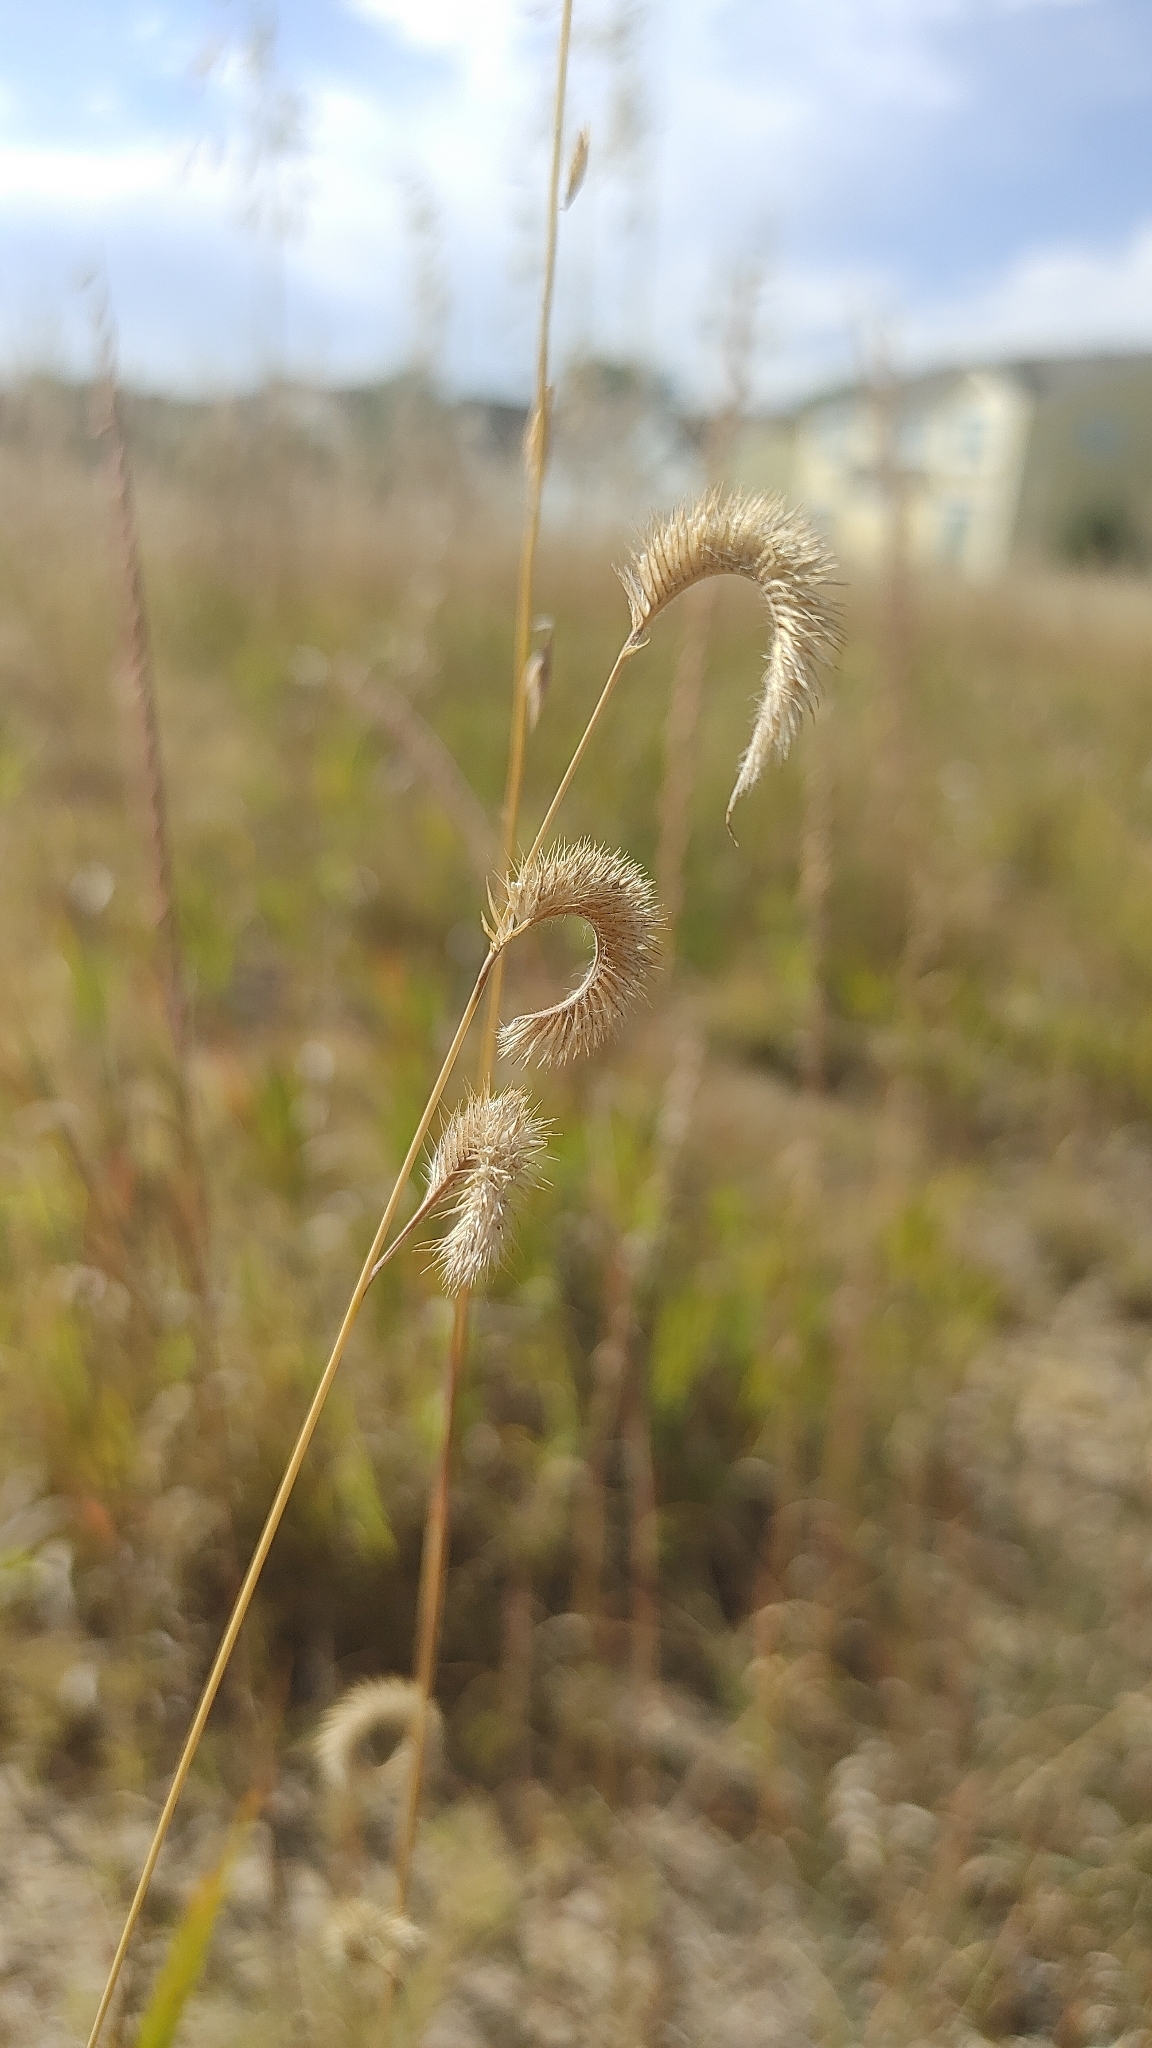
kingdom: Plantae
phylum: Tracheophyta
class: Liliopsida
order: Poales
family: Poaceae
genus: Bouteloua
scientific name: Bouteloua gracilis
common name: Blue grama
